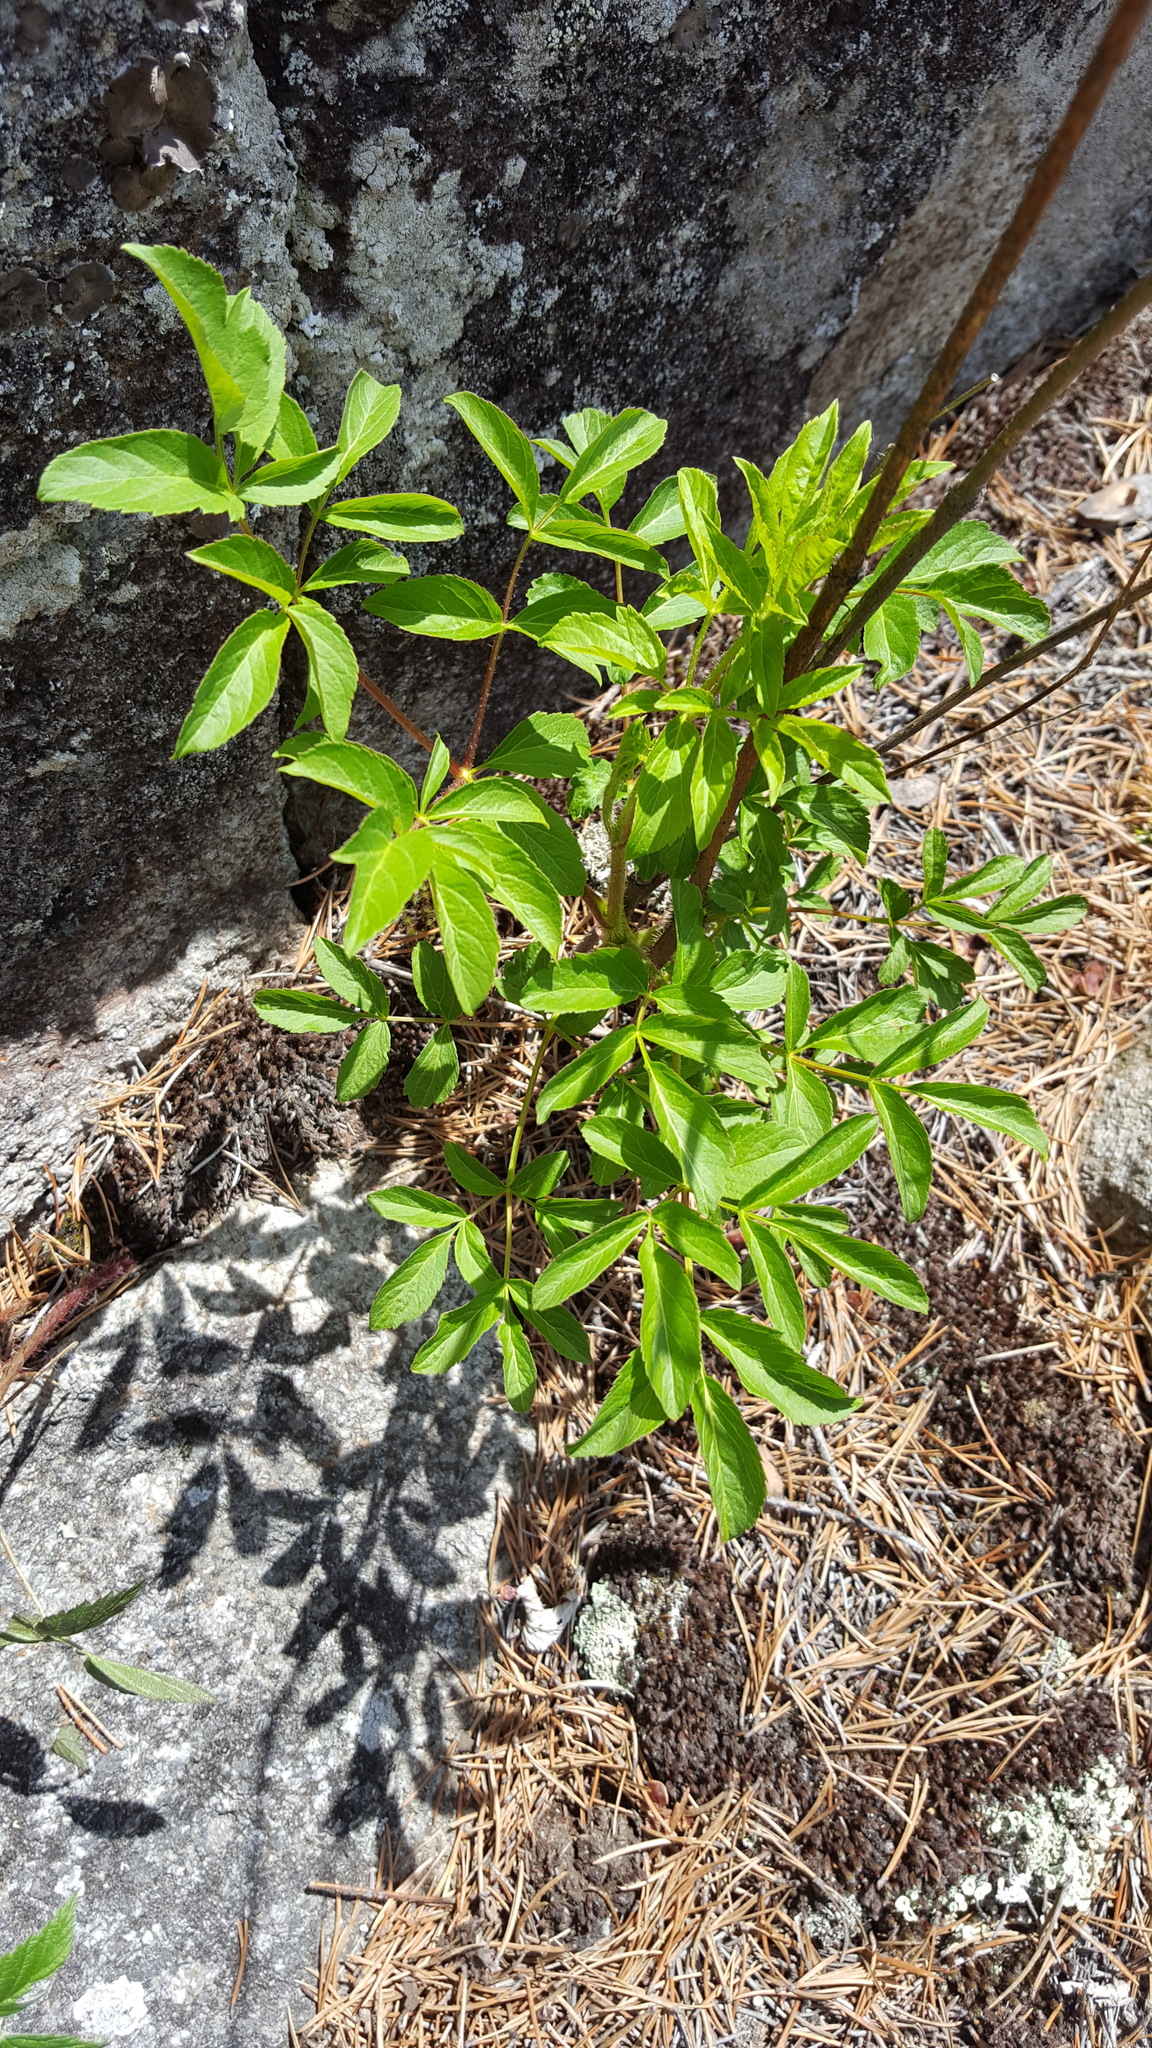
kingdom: Plantae
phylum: Tracheophyta
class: Magnoliopsida
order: Rosales
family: Rosaceae
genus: Sibbaldia
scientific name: Sibbaldia tridentata
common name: Three-toothed cinquefoil
